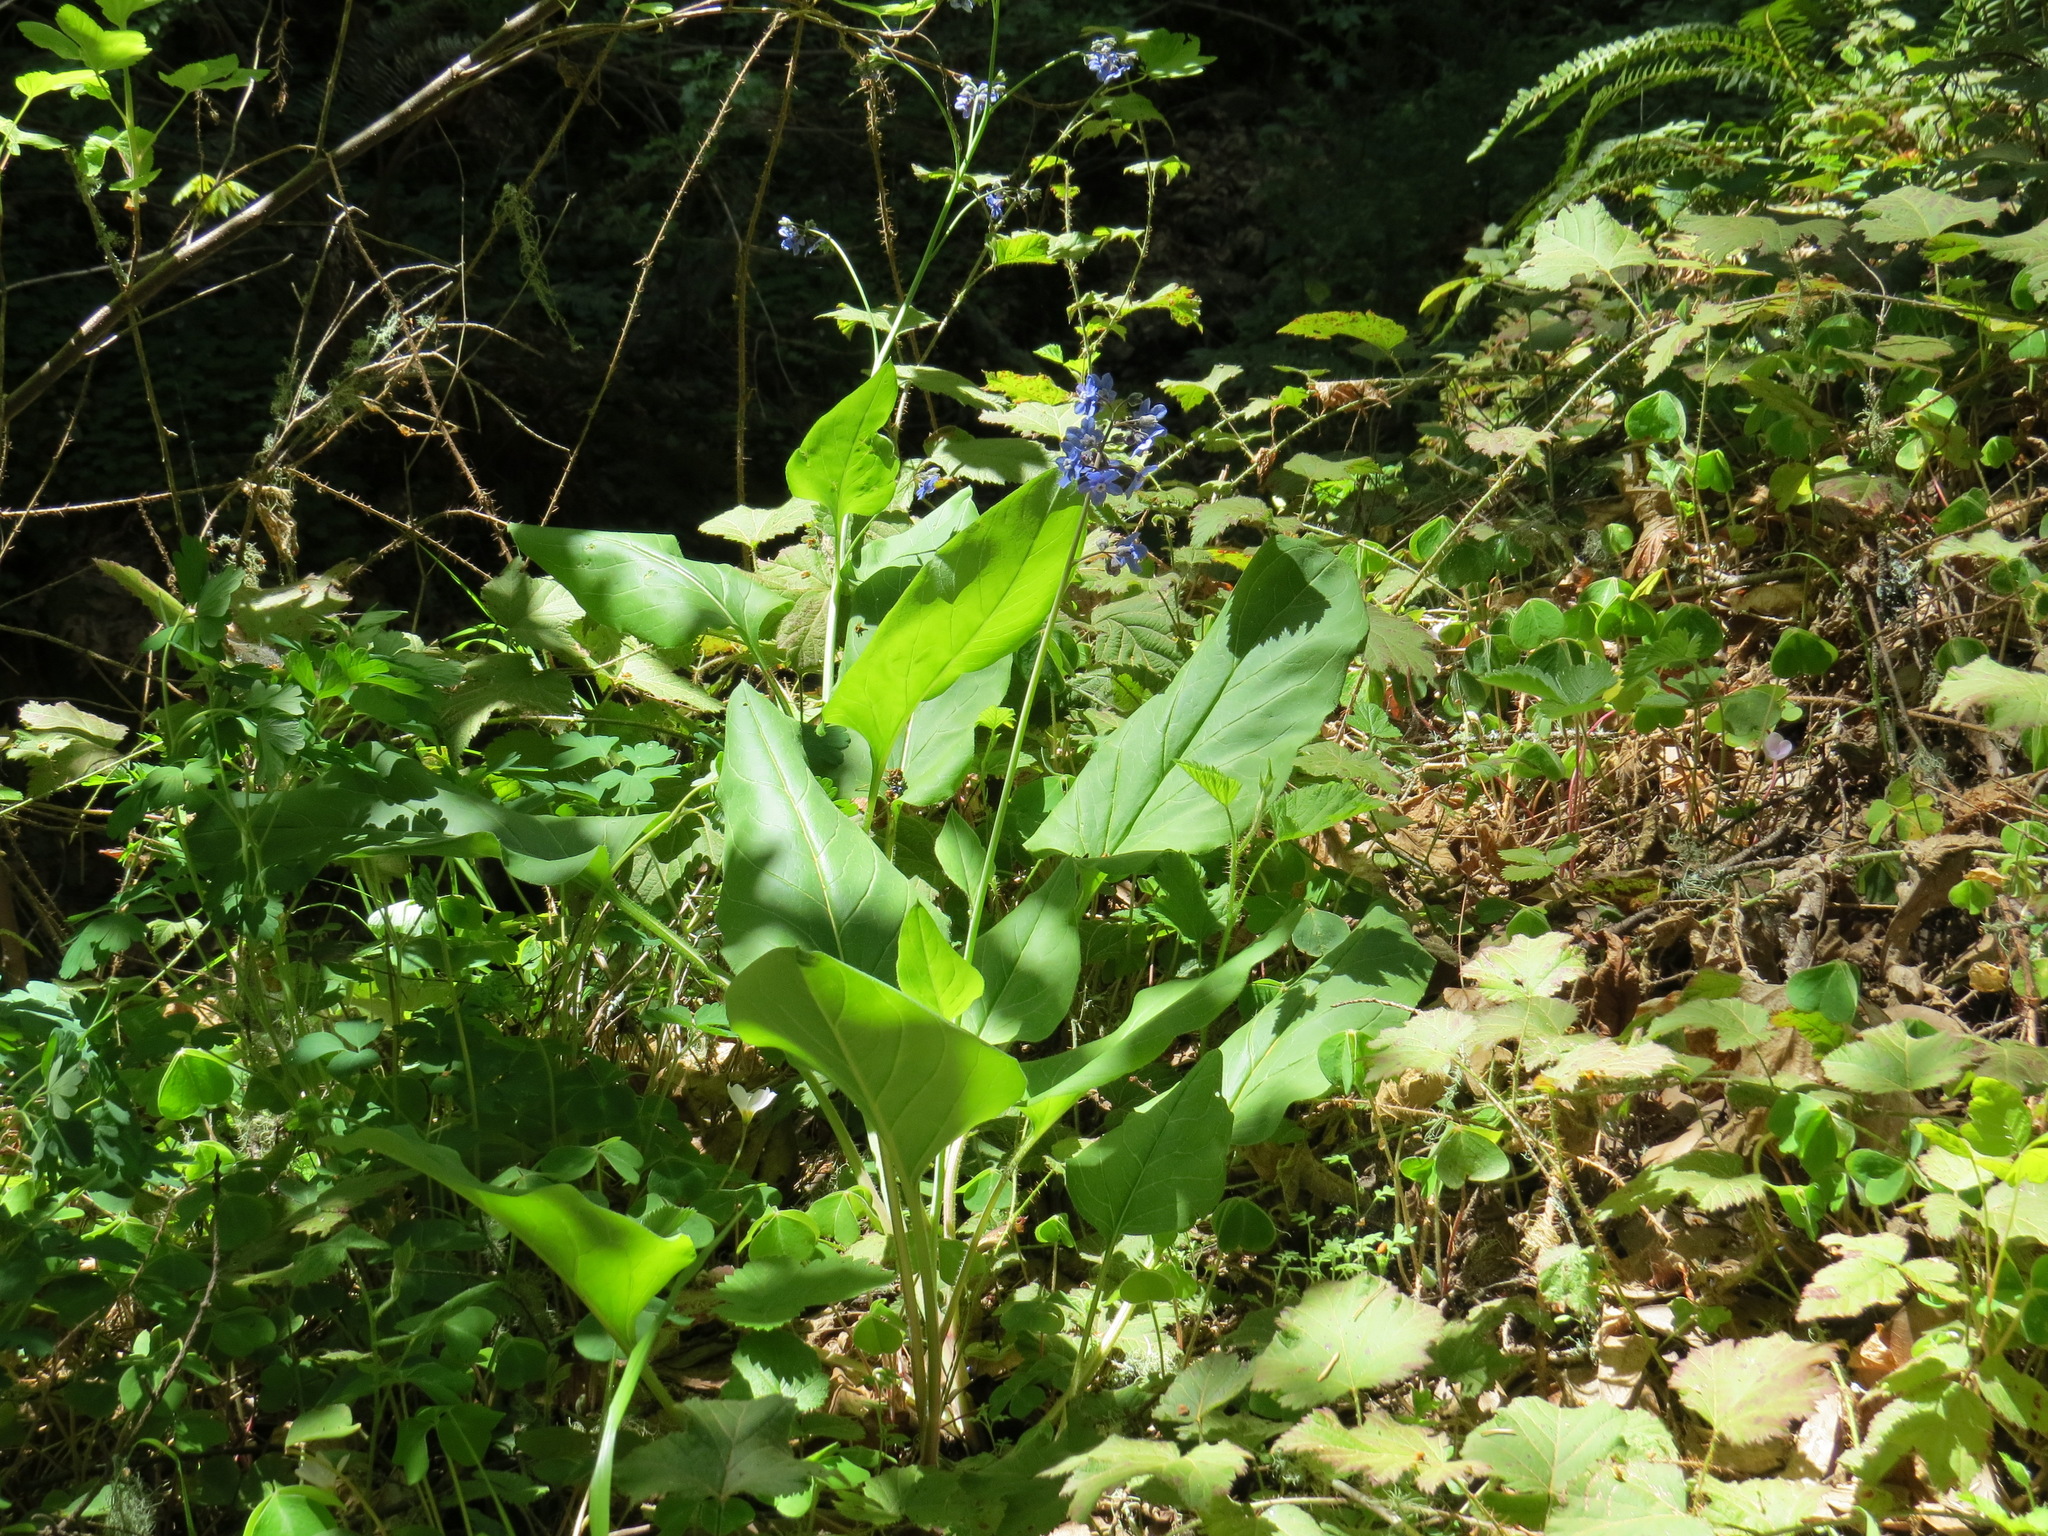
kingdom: Plantae
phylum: Tracheophyta
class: Magnoliopsida
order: Boraginales
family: Boraginaceae
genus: Adelinia
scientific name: Adelinia grande
